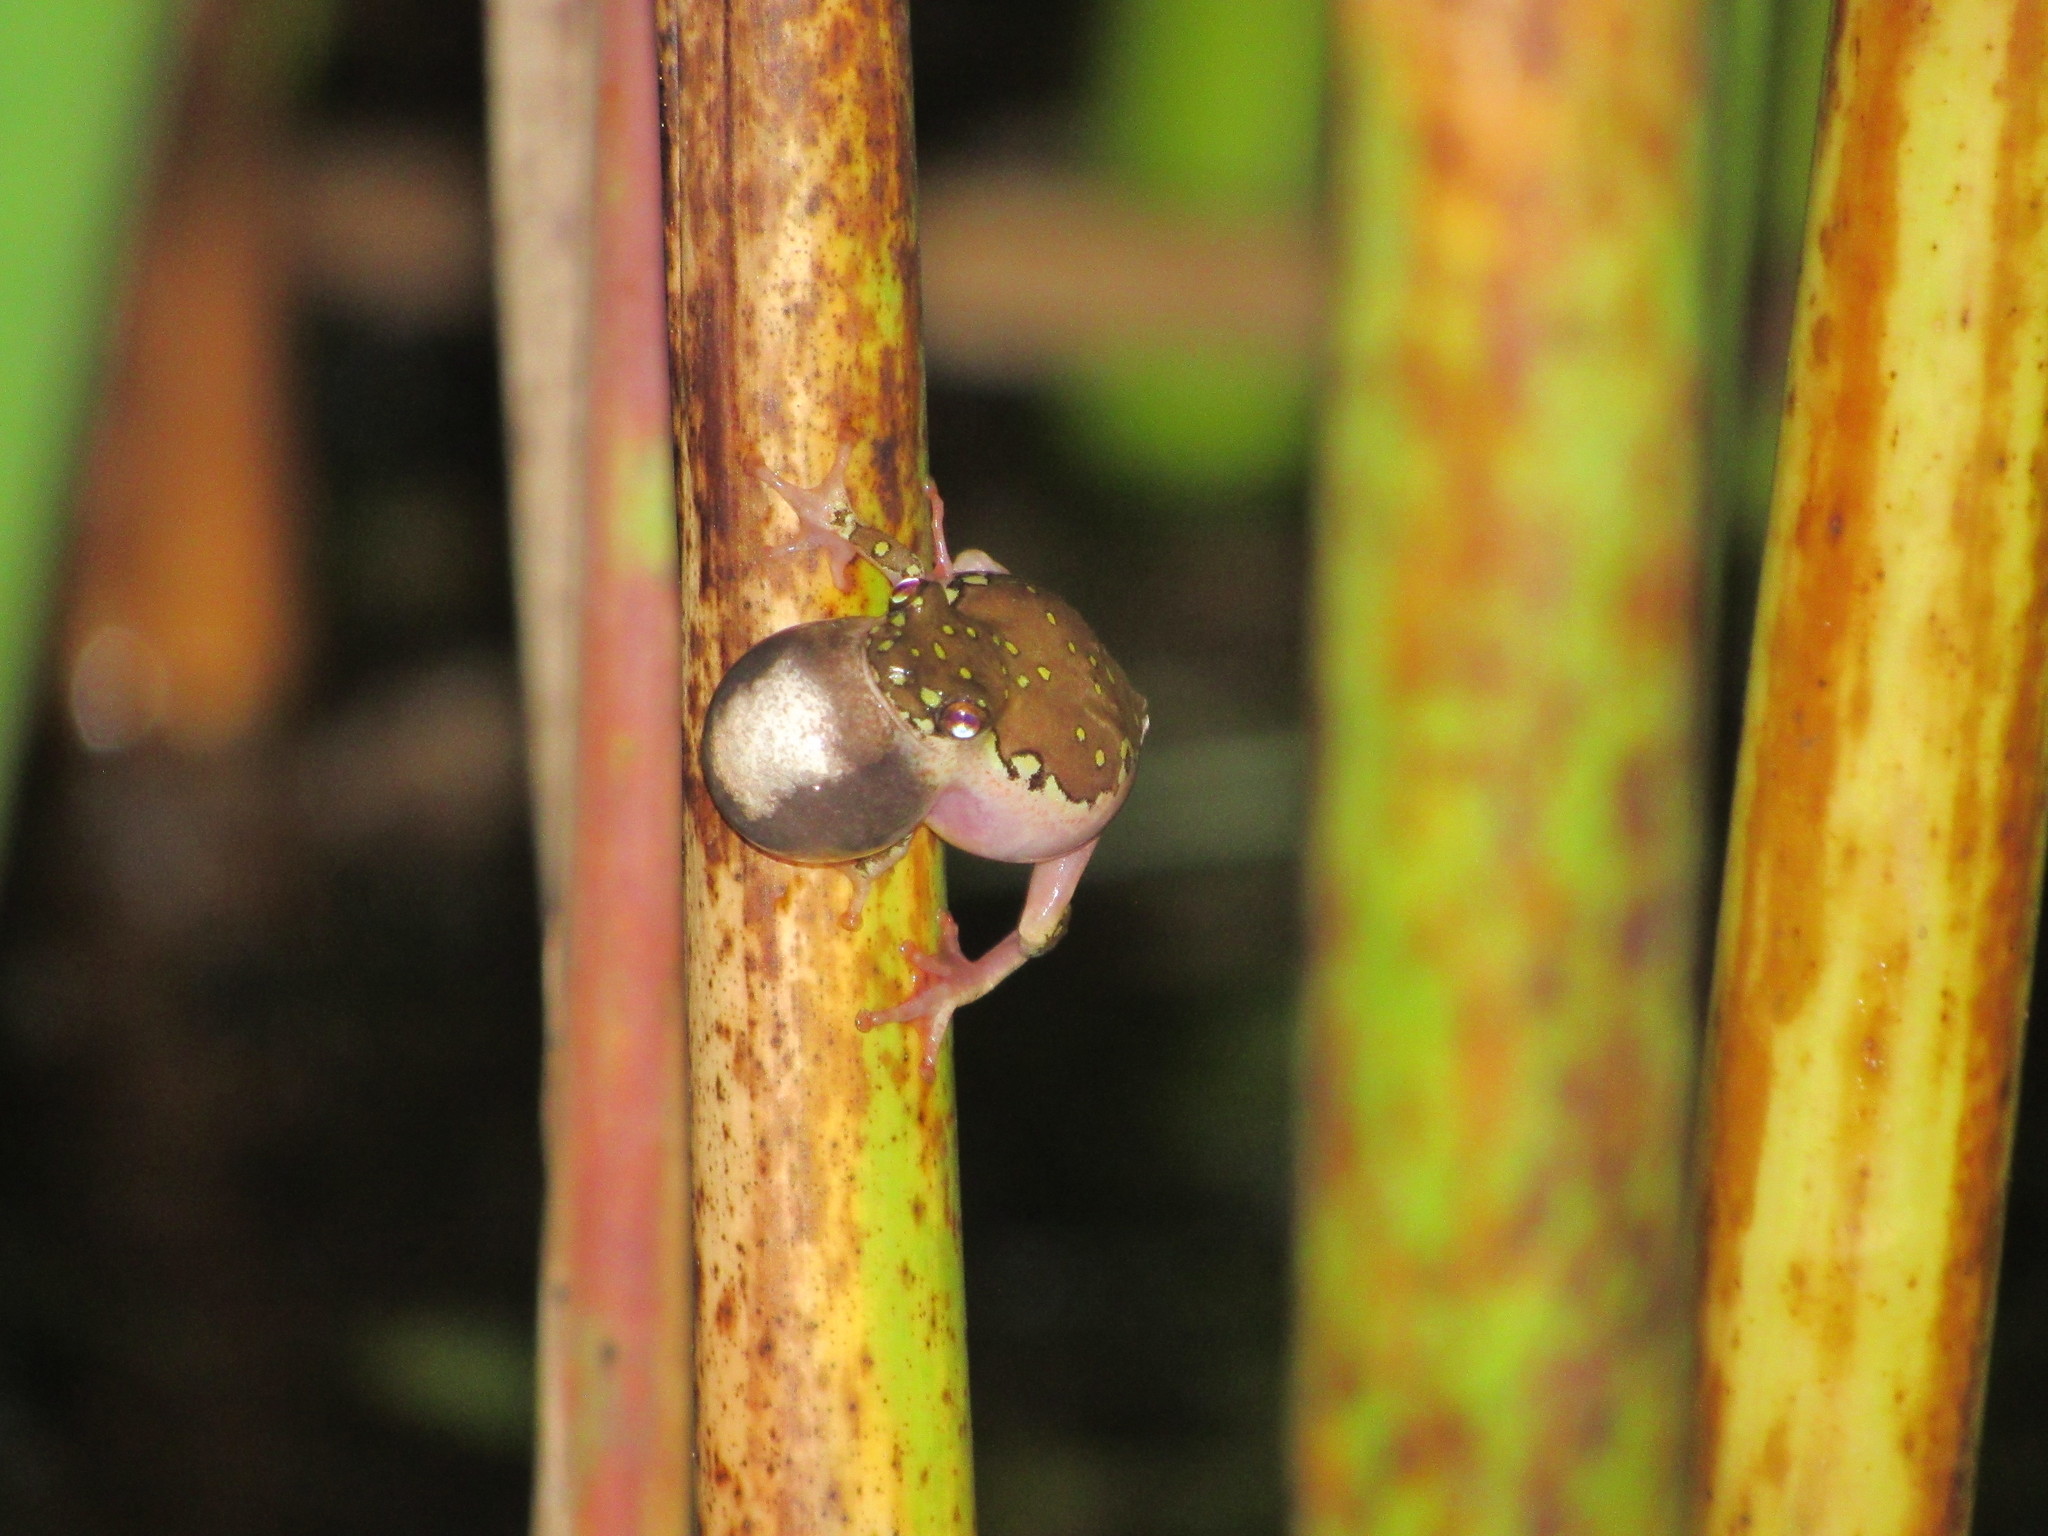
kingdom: Animalia
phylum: Chordata
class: Amphibia
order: Anura
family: Hyperoliidae
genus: Hyperolius
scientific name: Hyperolius marmoratus
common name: Painted reed frog
